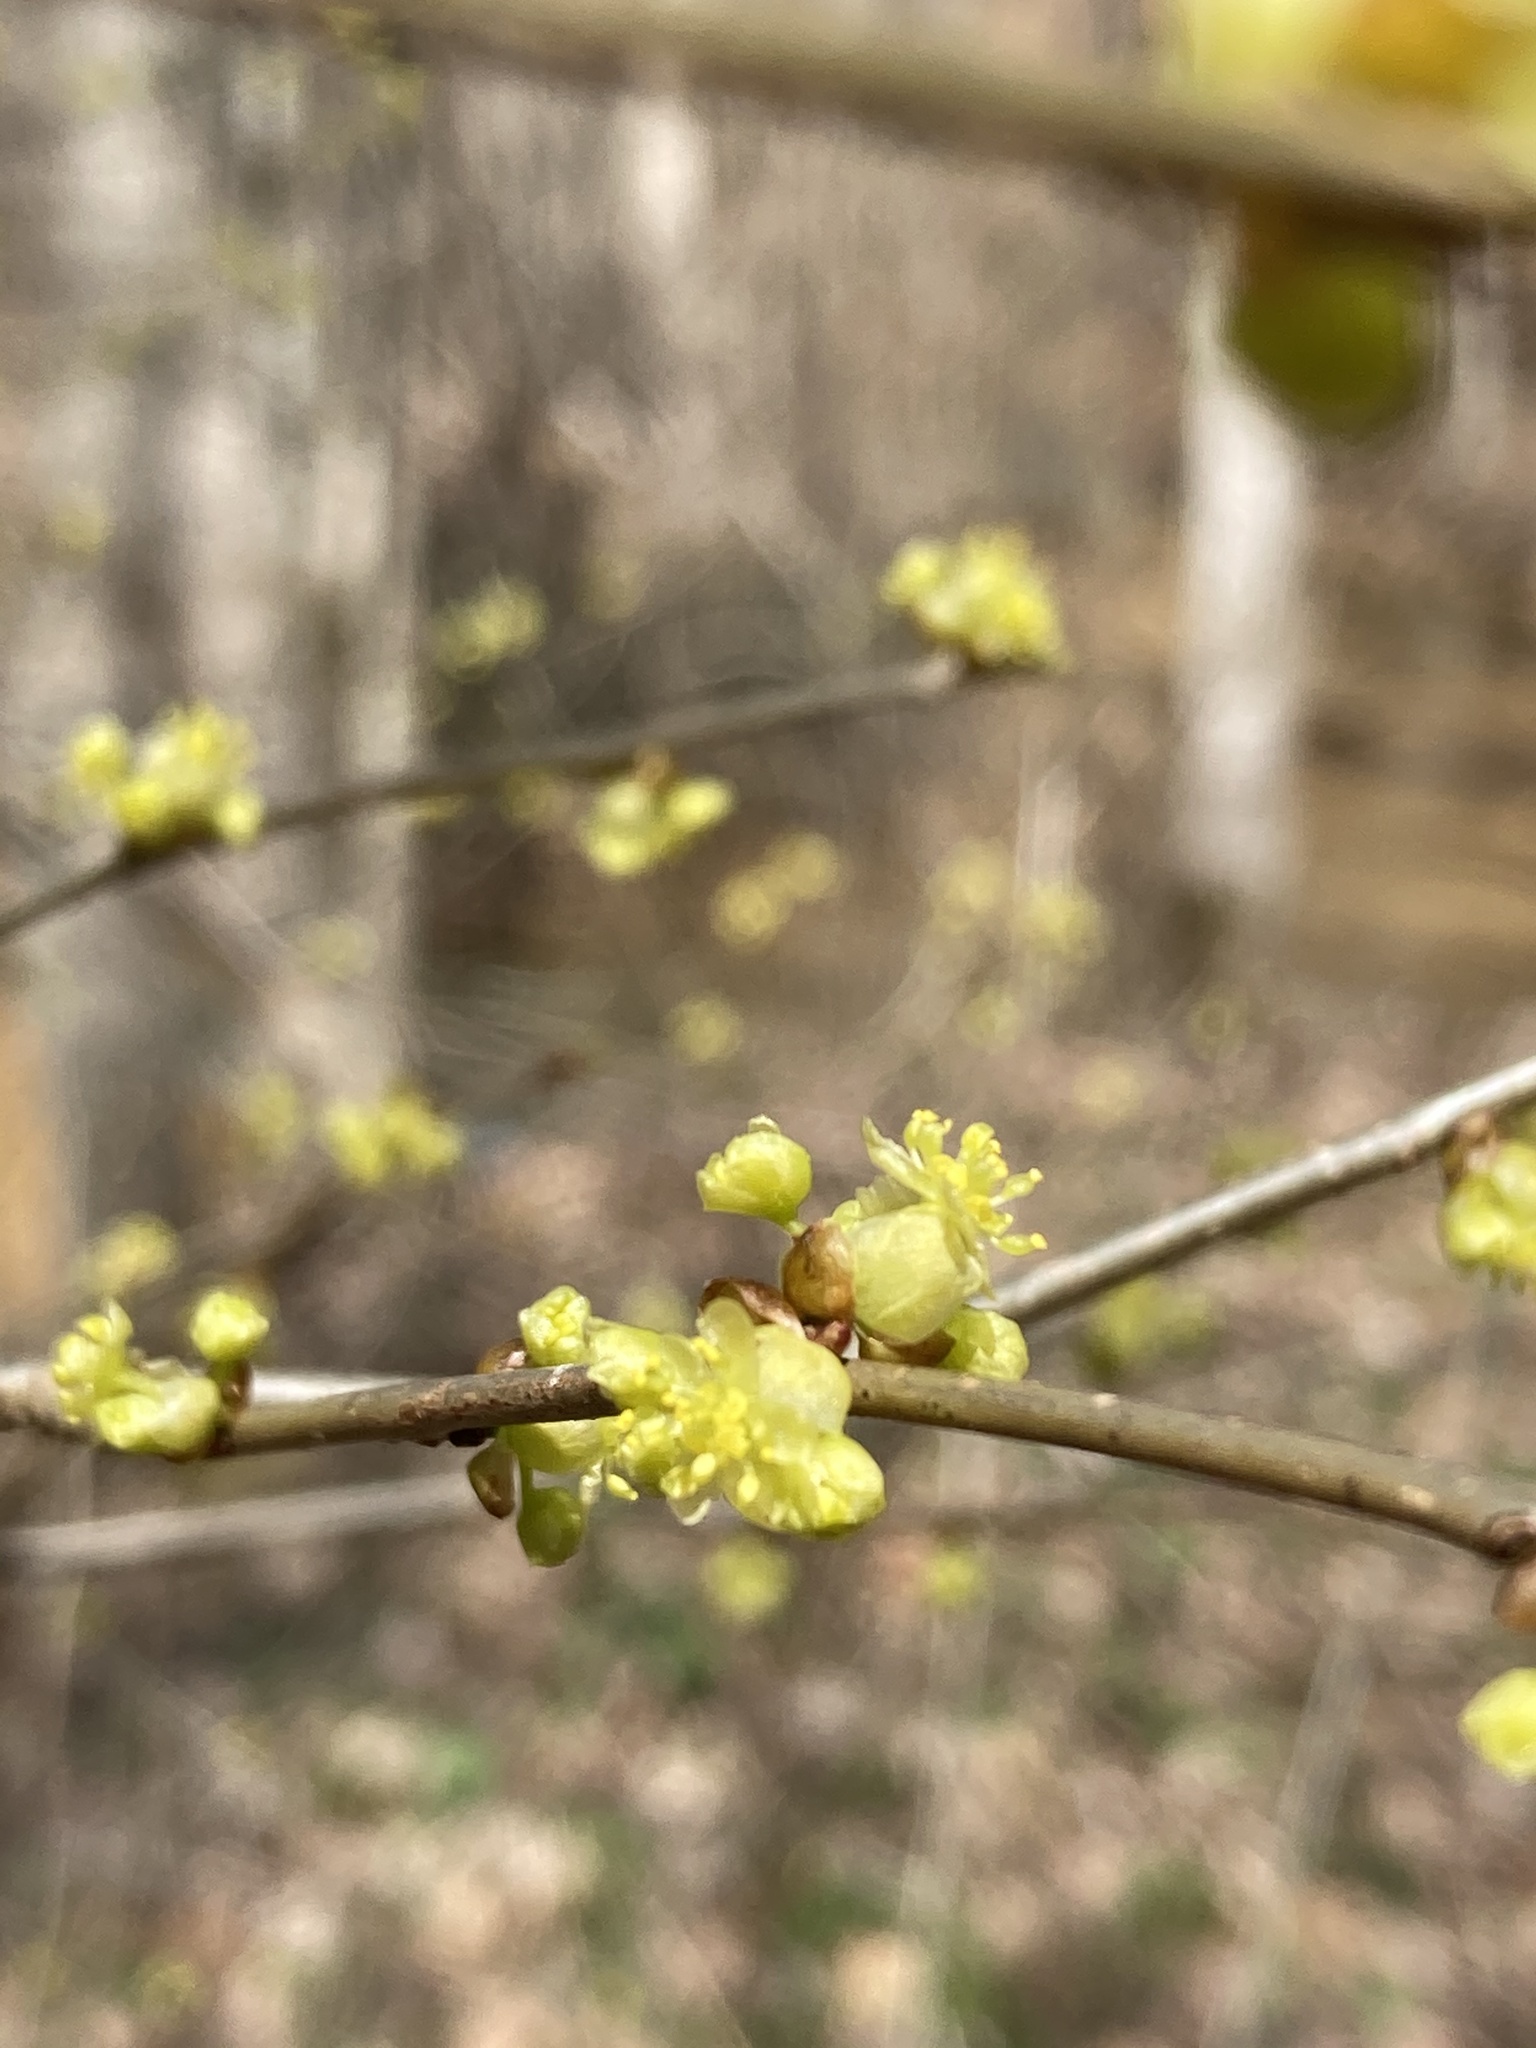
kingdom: Plantae
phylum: Tracheophyta
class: Magnoliopsida
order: Laurales
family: Lauraceae
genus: Lindera
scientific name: Lindera benzoin
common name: Spicebush
